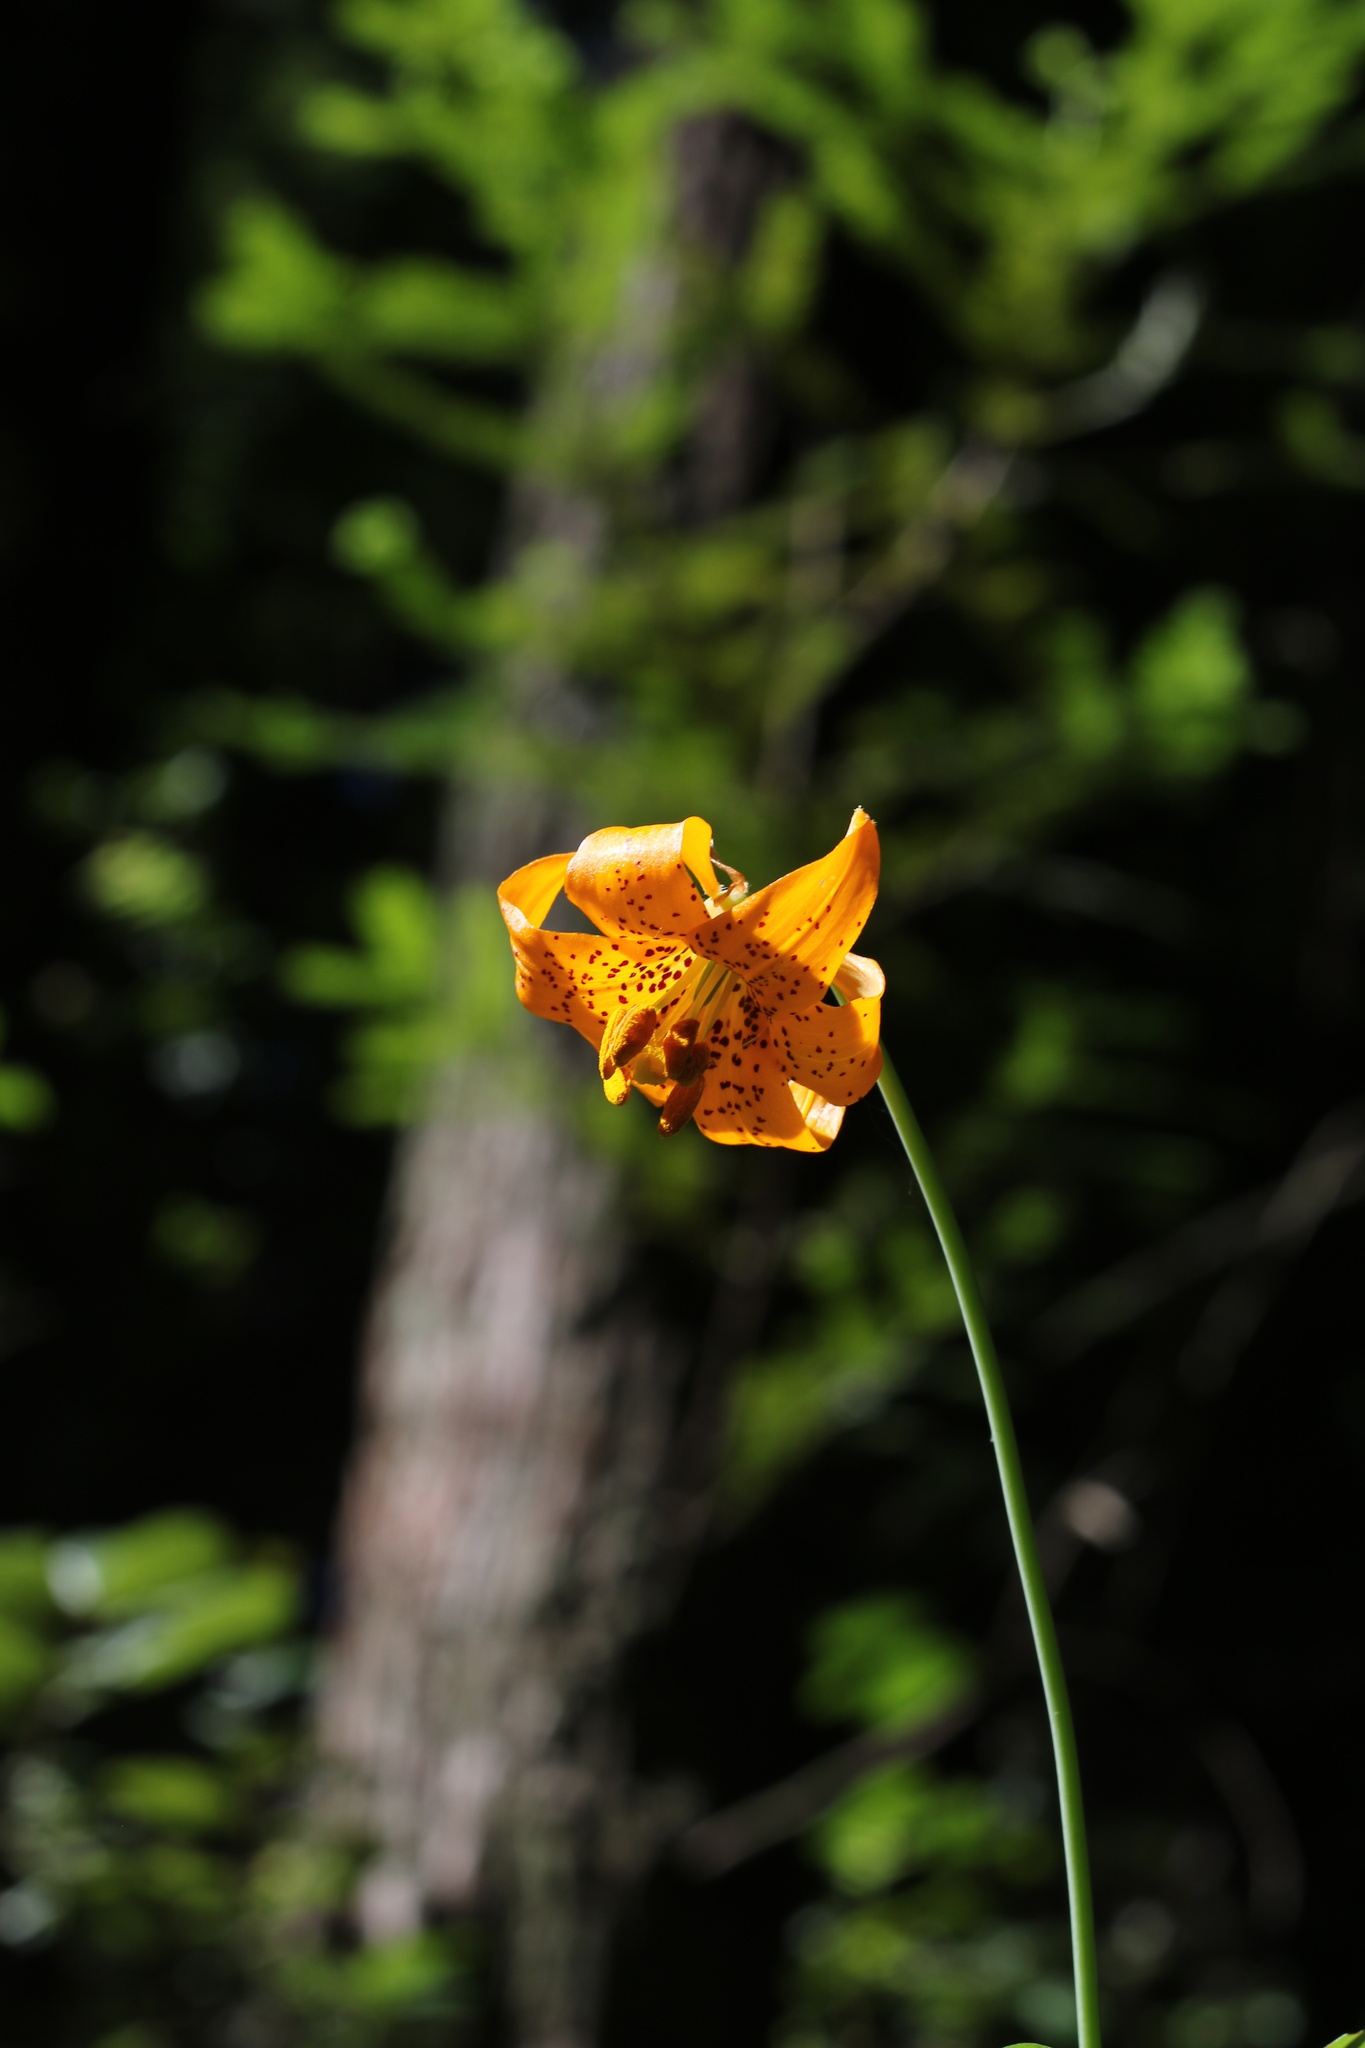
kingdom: Plantae
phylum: Tracheophyta
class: Liliopsida
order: Liliales
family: Liliaceae
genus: Lilium
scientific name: Lilium columbianum
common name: Columbia lily
